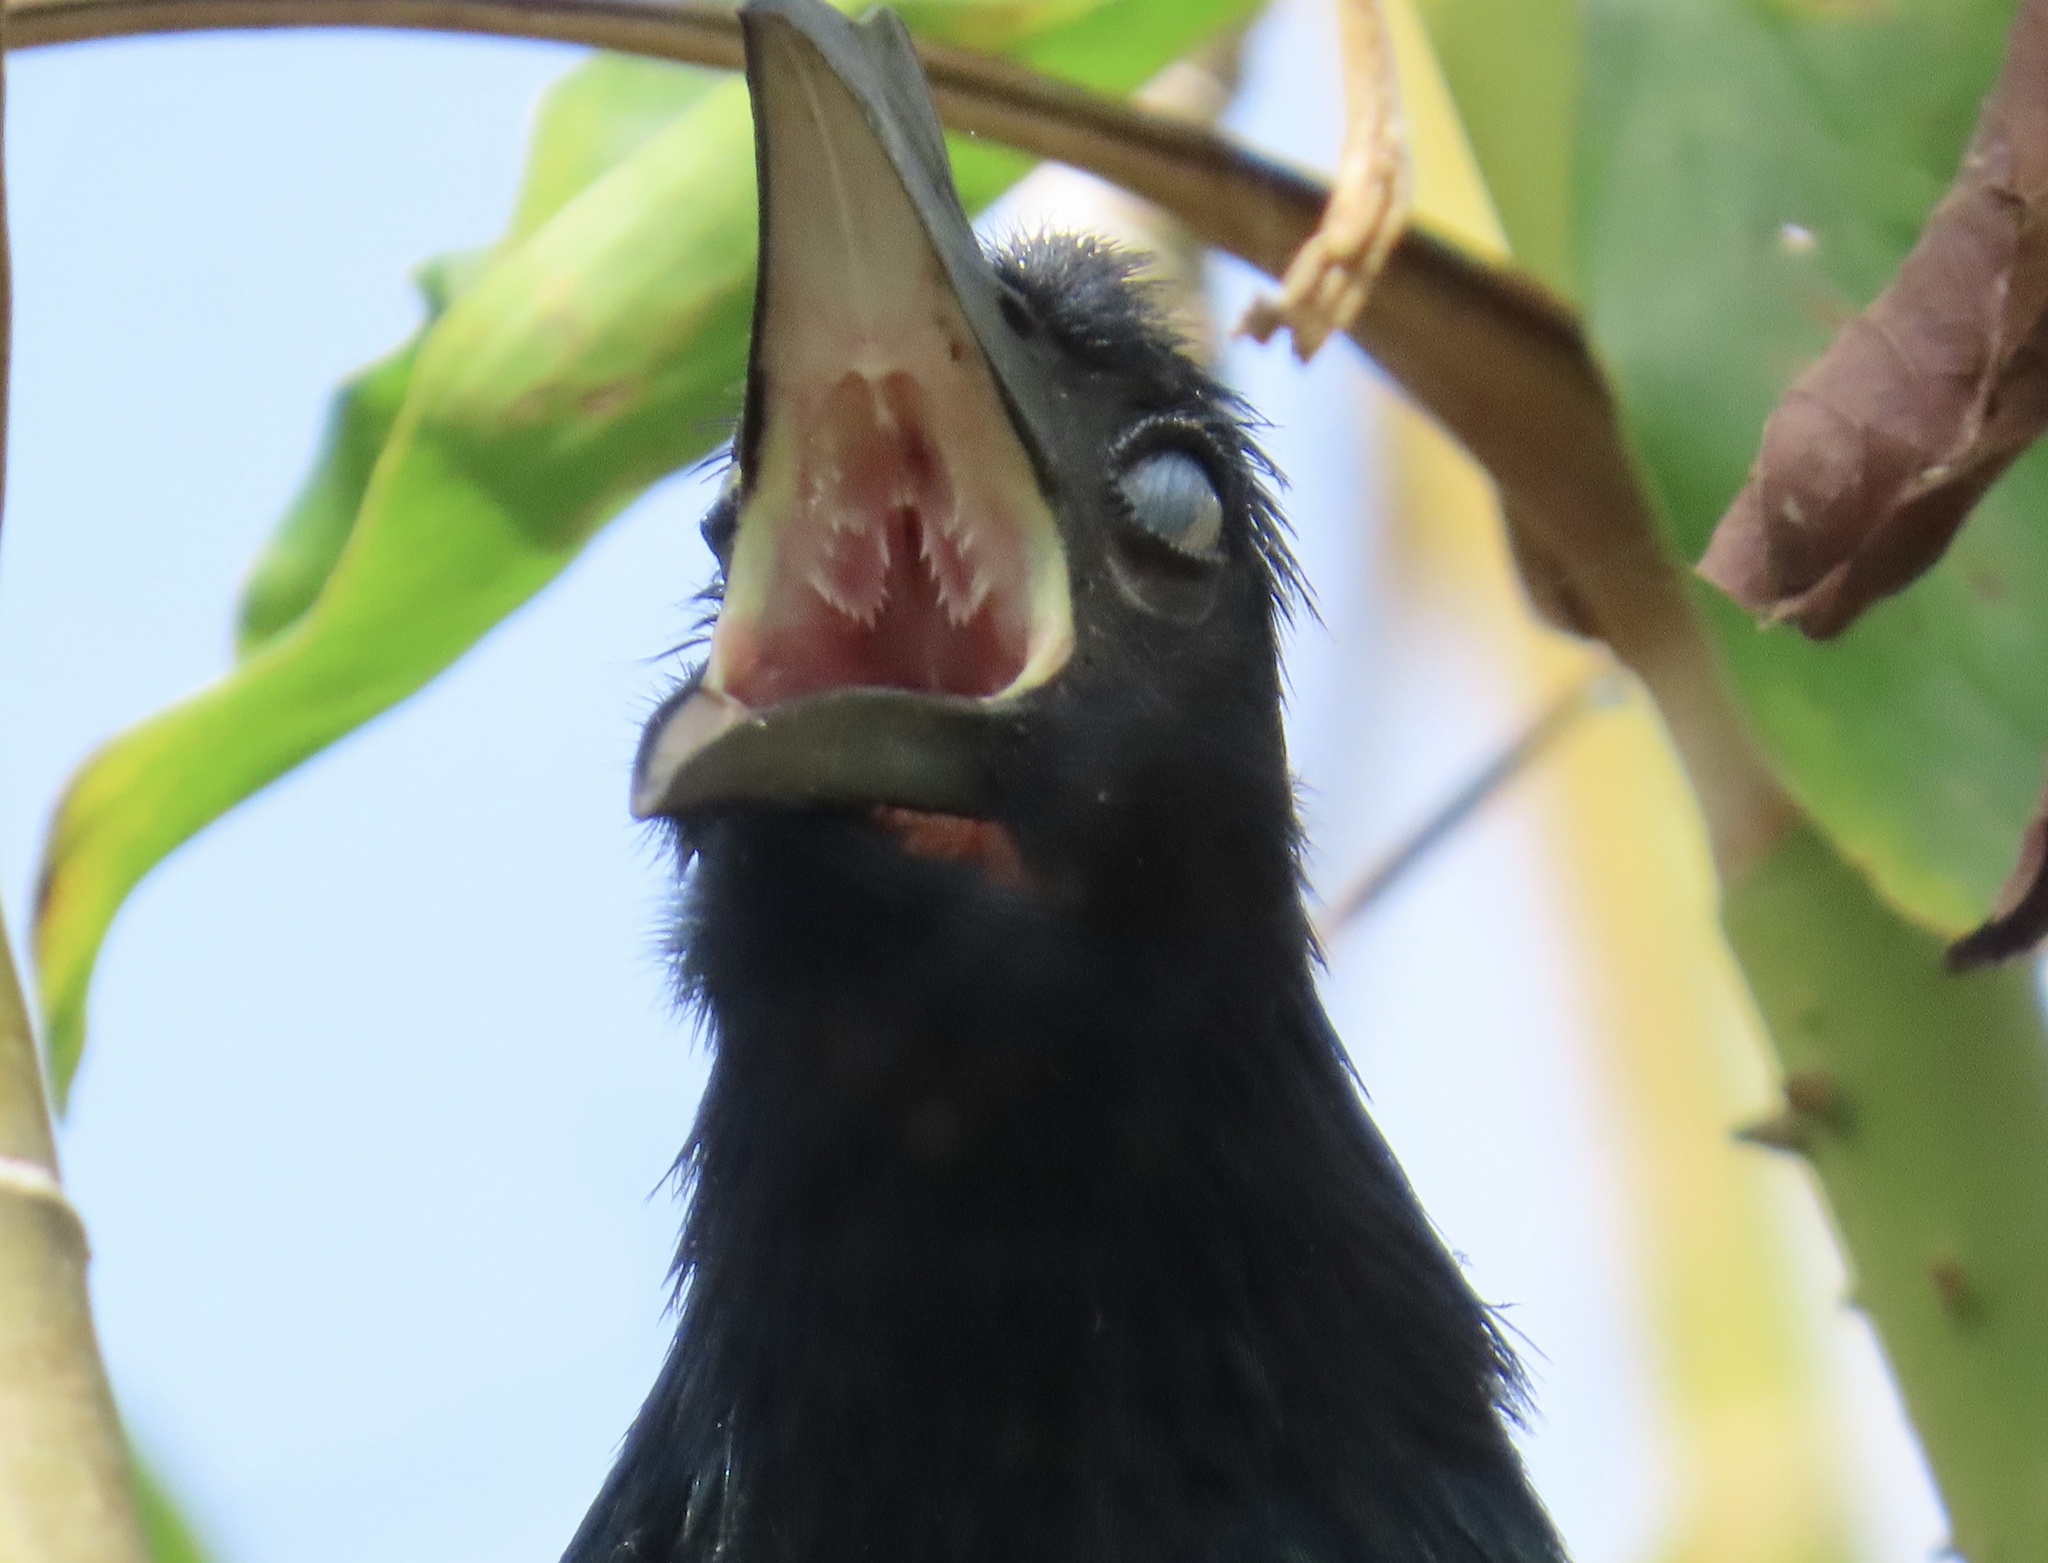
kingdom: Animalia
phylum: Chordata
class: Aves
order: Cuculiformes
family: Cuculidae
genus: Crotophaga
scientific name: Crotophaga major
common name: Greater ani
